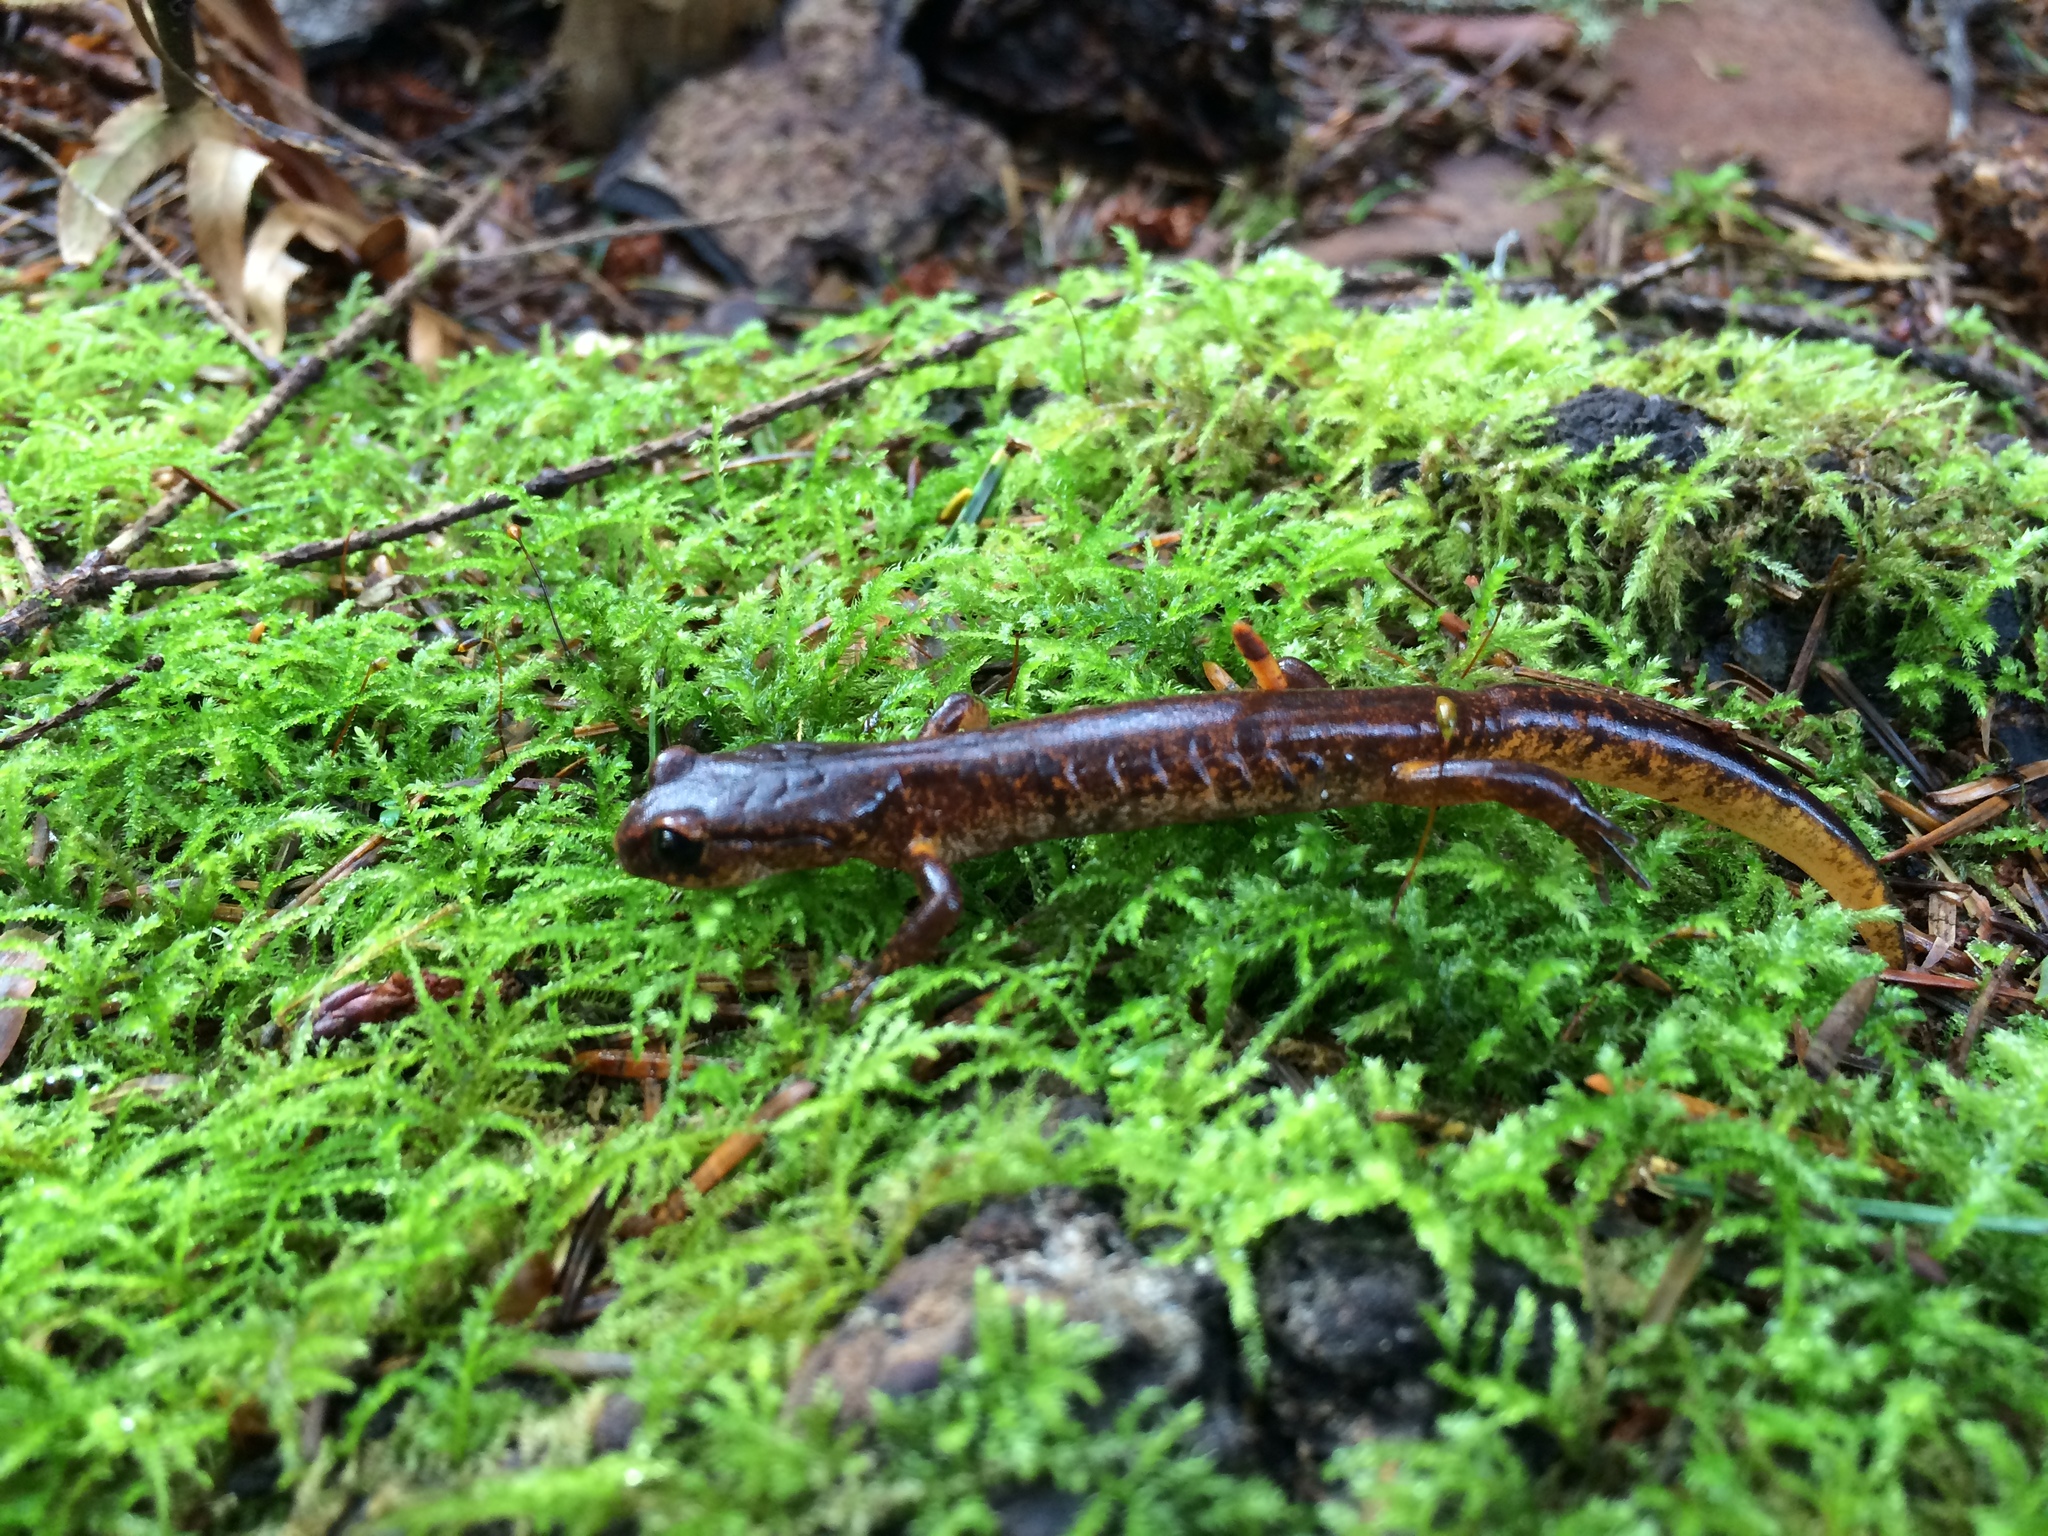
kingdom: Animalia
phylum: Chordata
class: Amphibia
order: Caudata
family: Plethodontidae
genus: Ensatina
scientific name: Ensatina eschscholtzii
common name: Ensatina
